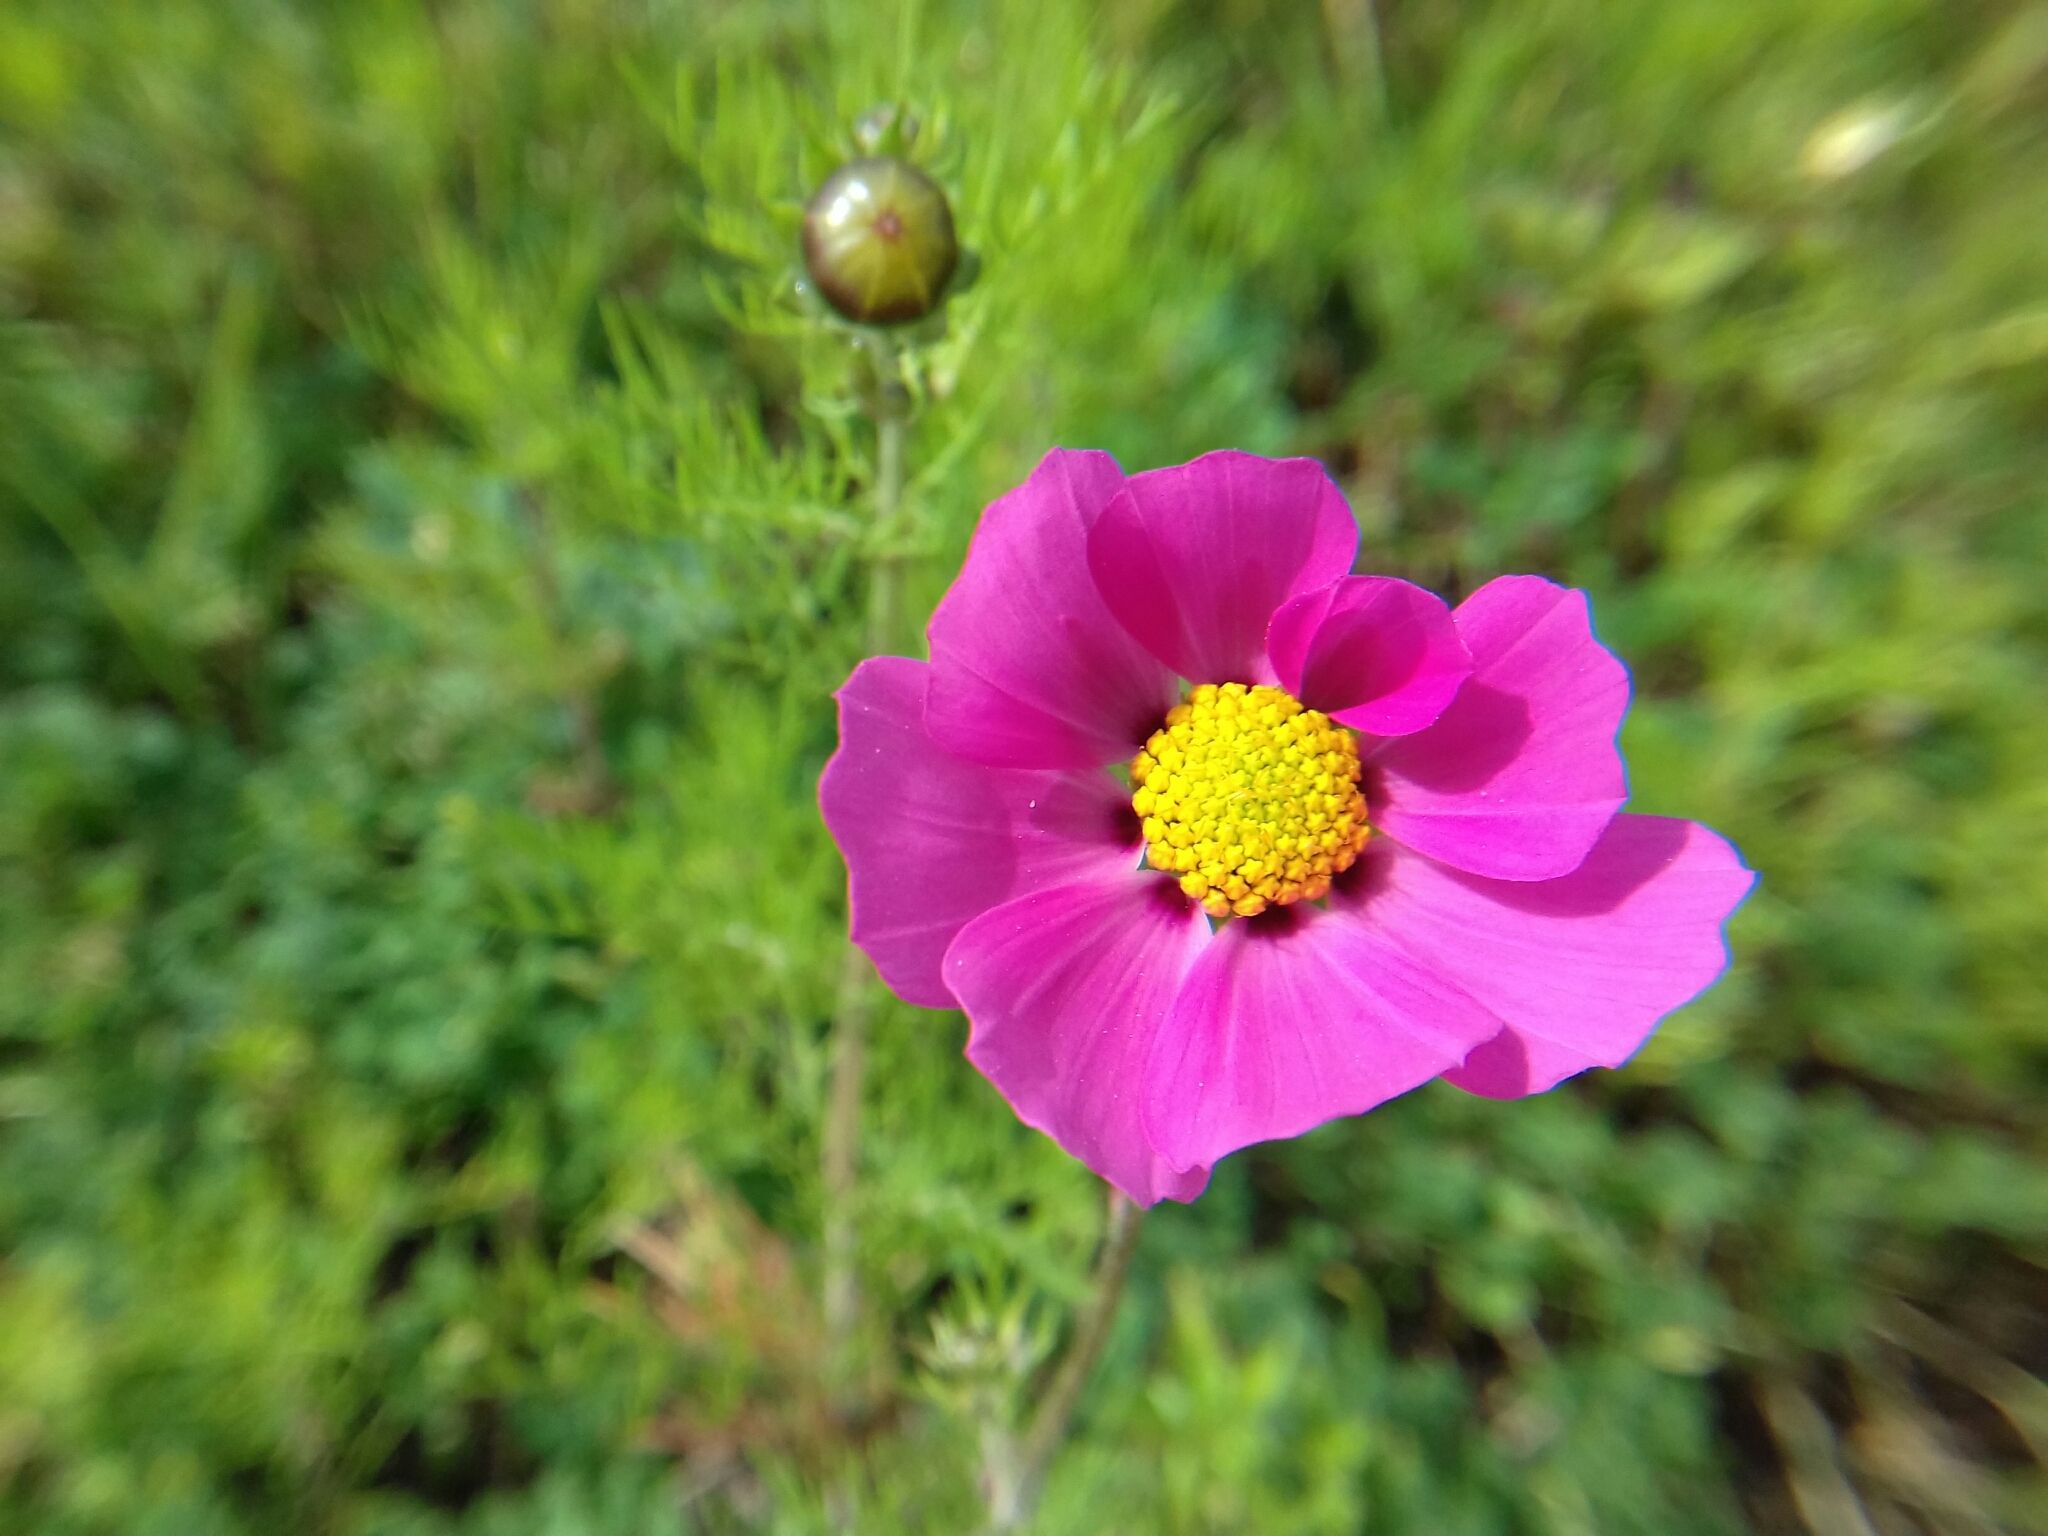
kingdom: Plantae
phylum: Tracheophyta
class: Magnoliopsida
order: Asterales
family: Asteraceae
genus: Cosmos
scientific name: Cosmos bipinnatus
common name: Garden cosmos
